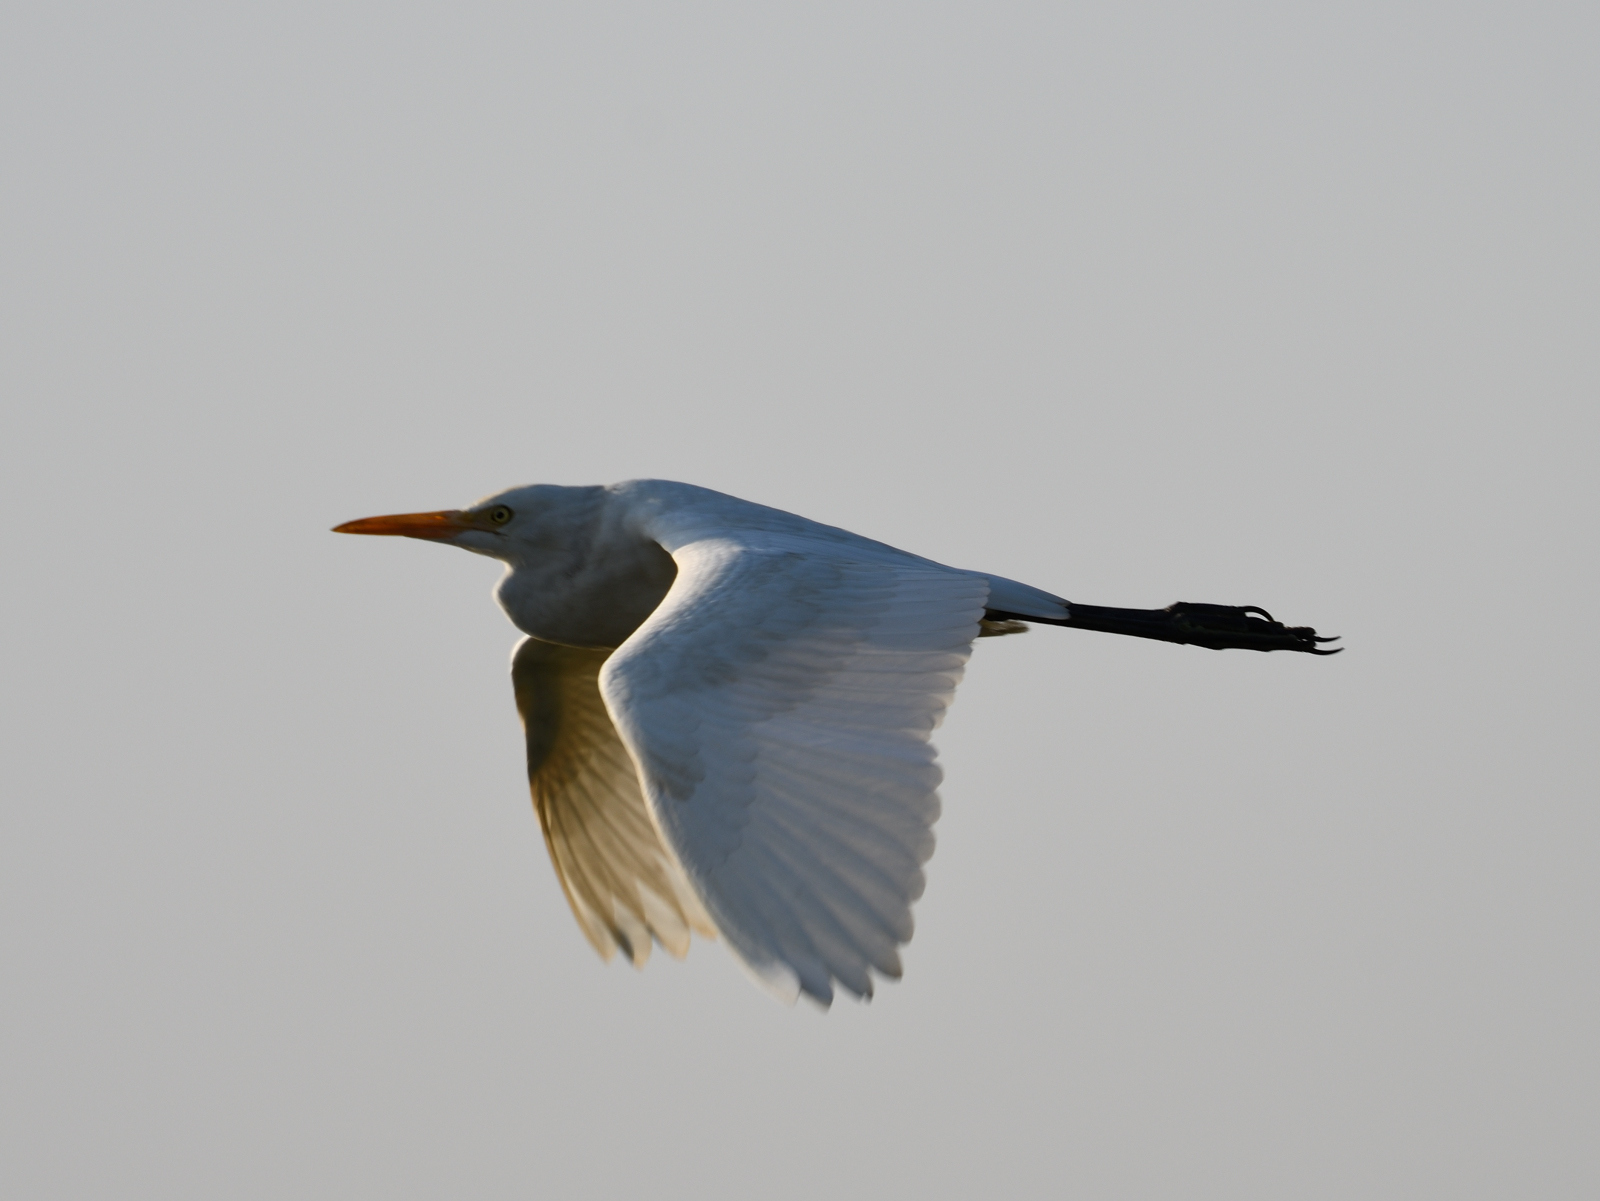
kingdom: Animalia
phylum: Chordata
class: Aves
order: Pelecaniformes
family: Ardeidae
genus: Bubulcus
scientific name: Bubulcus coromandus
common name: Eastern cattle egret
